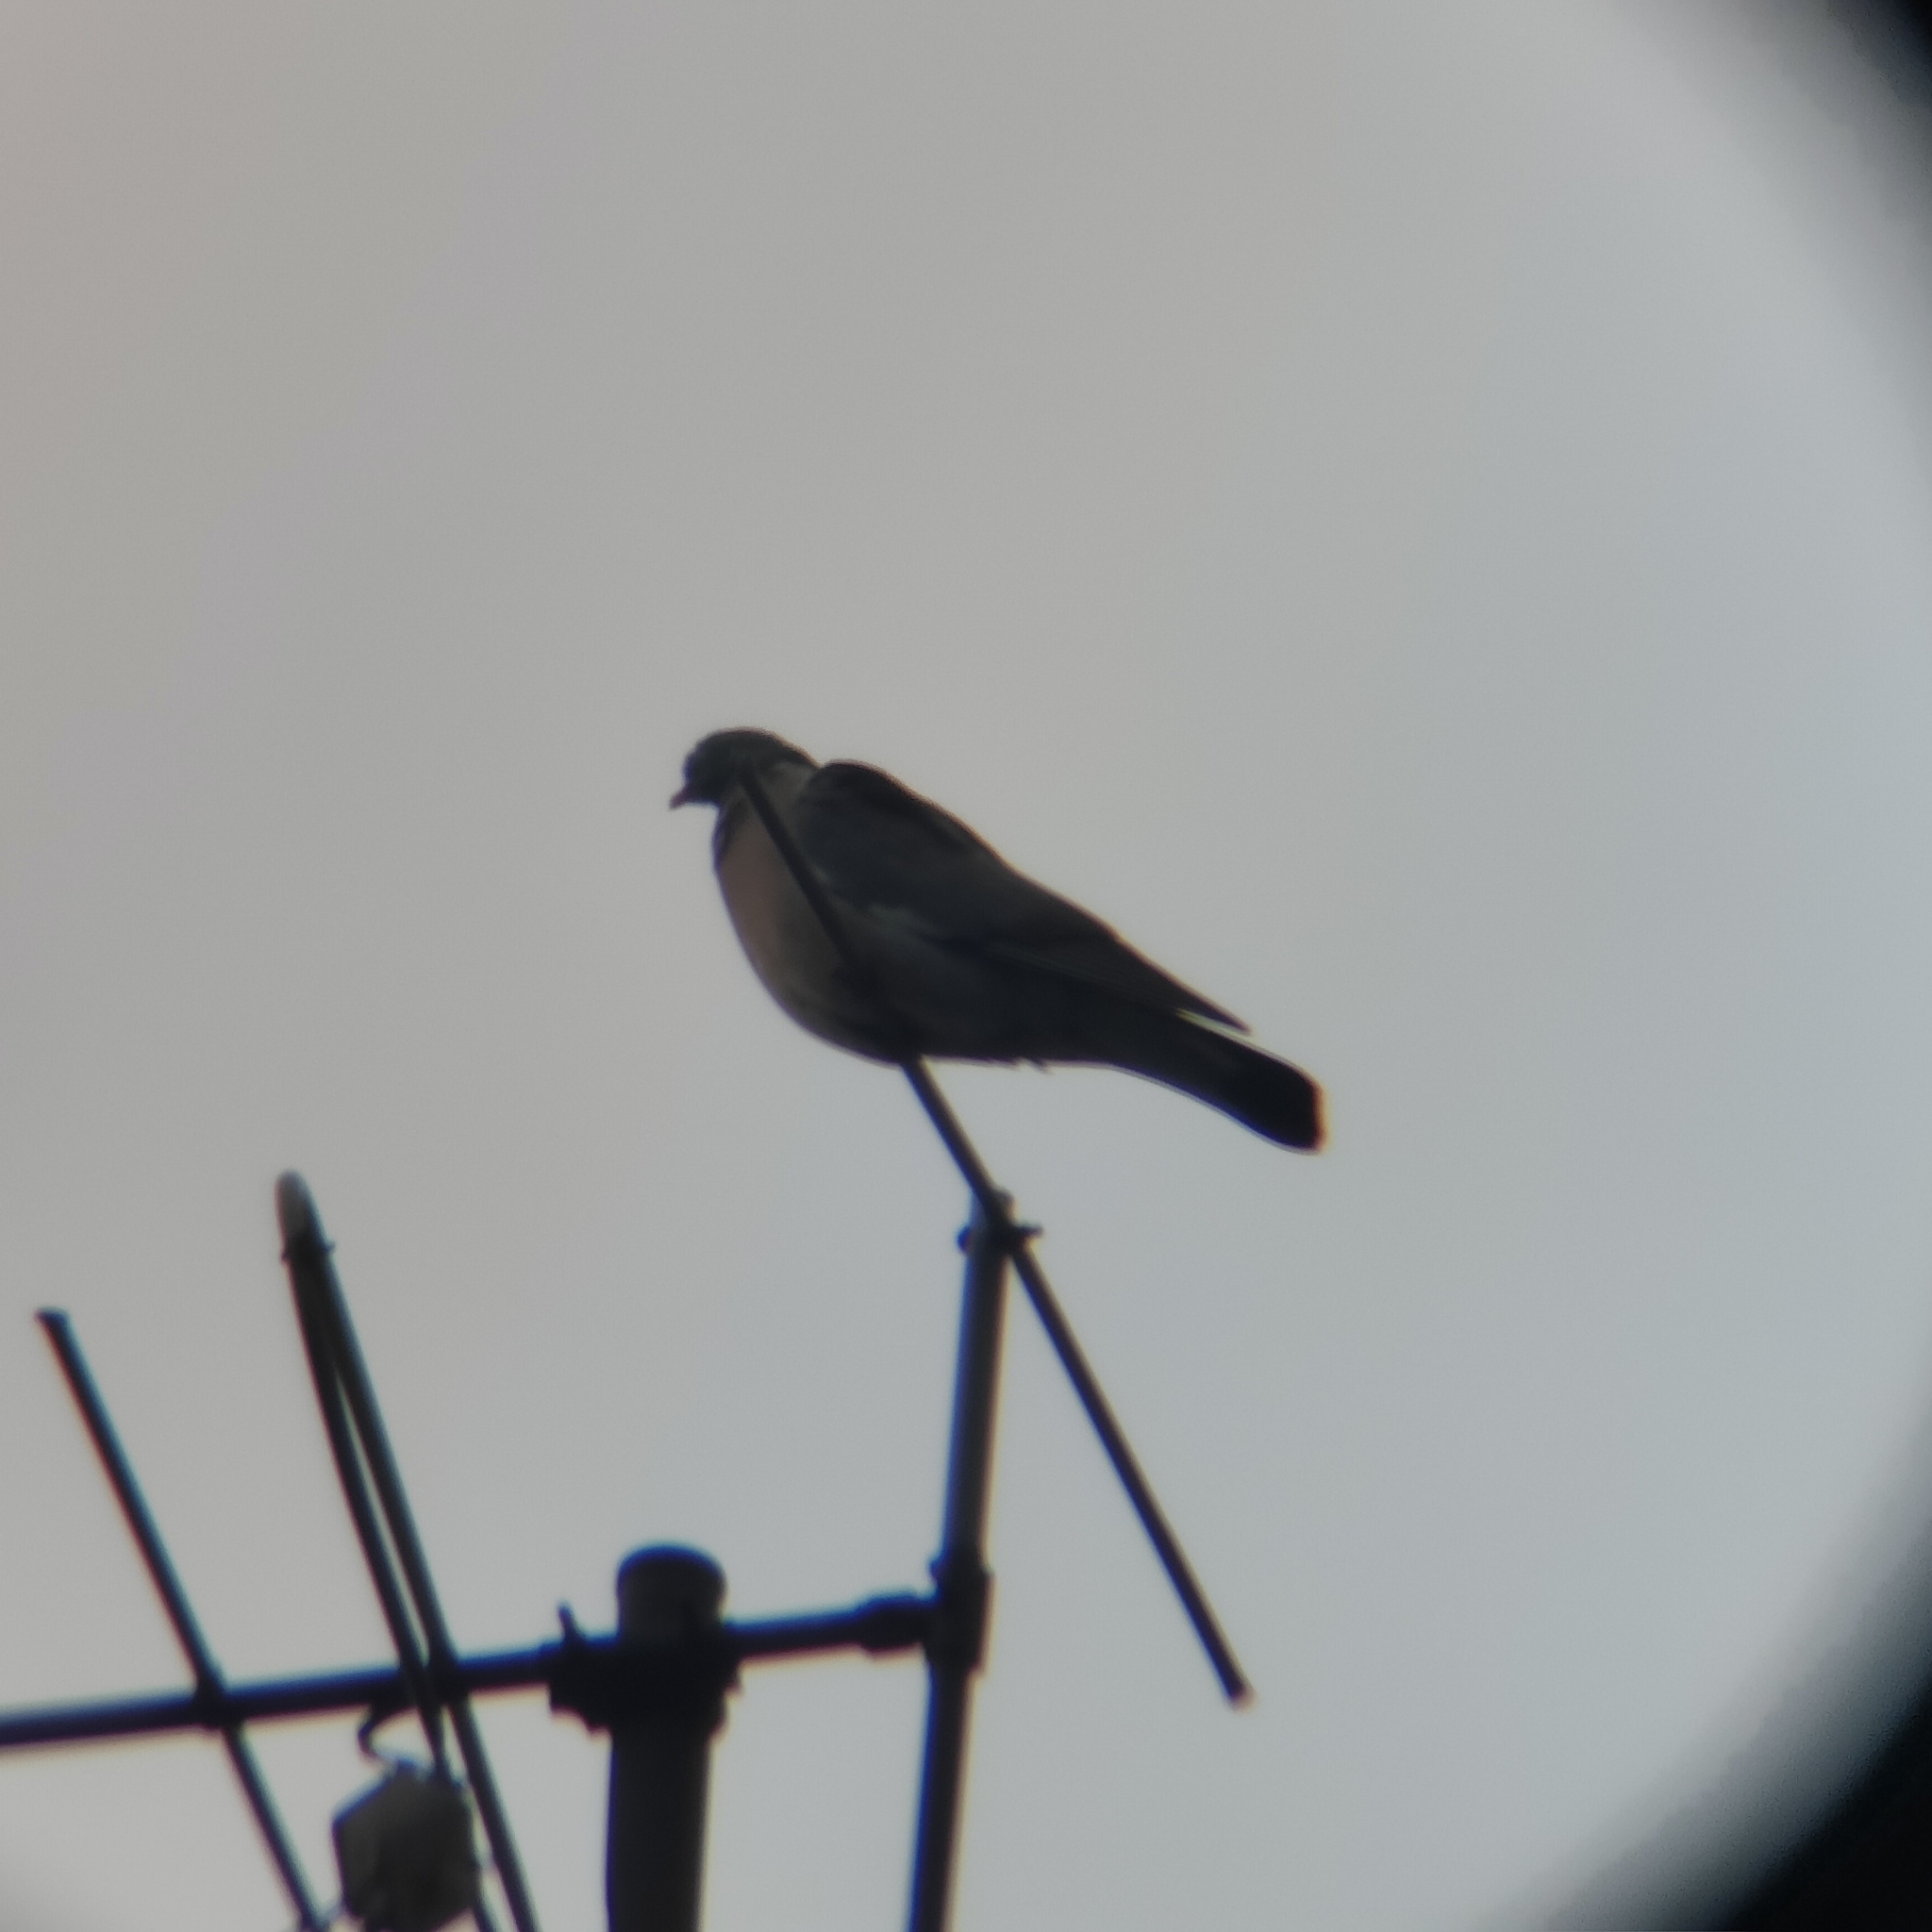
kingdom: Animalia
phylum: Chordata
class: Aves
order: Columbiformes
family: Columbidae
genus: Columba
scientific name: Columba palumbus
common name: Common wood pigeon
